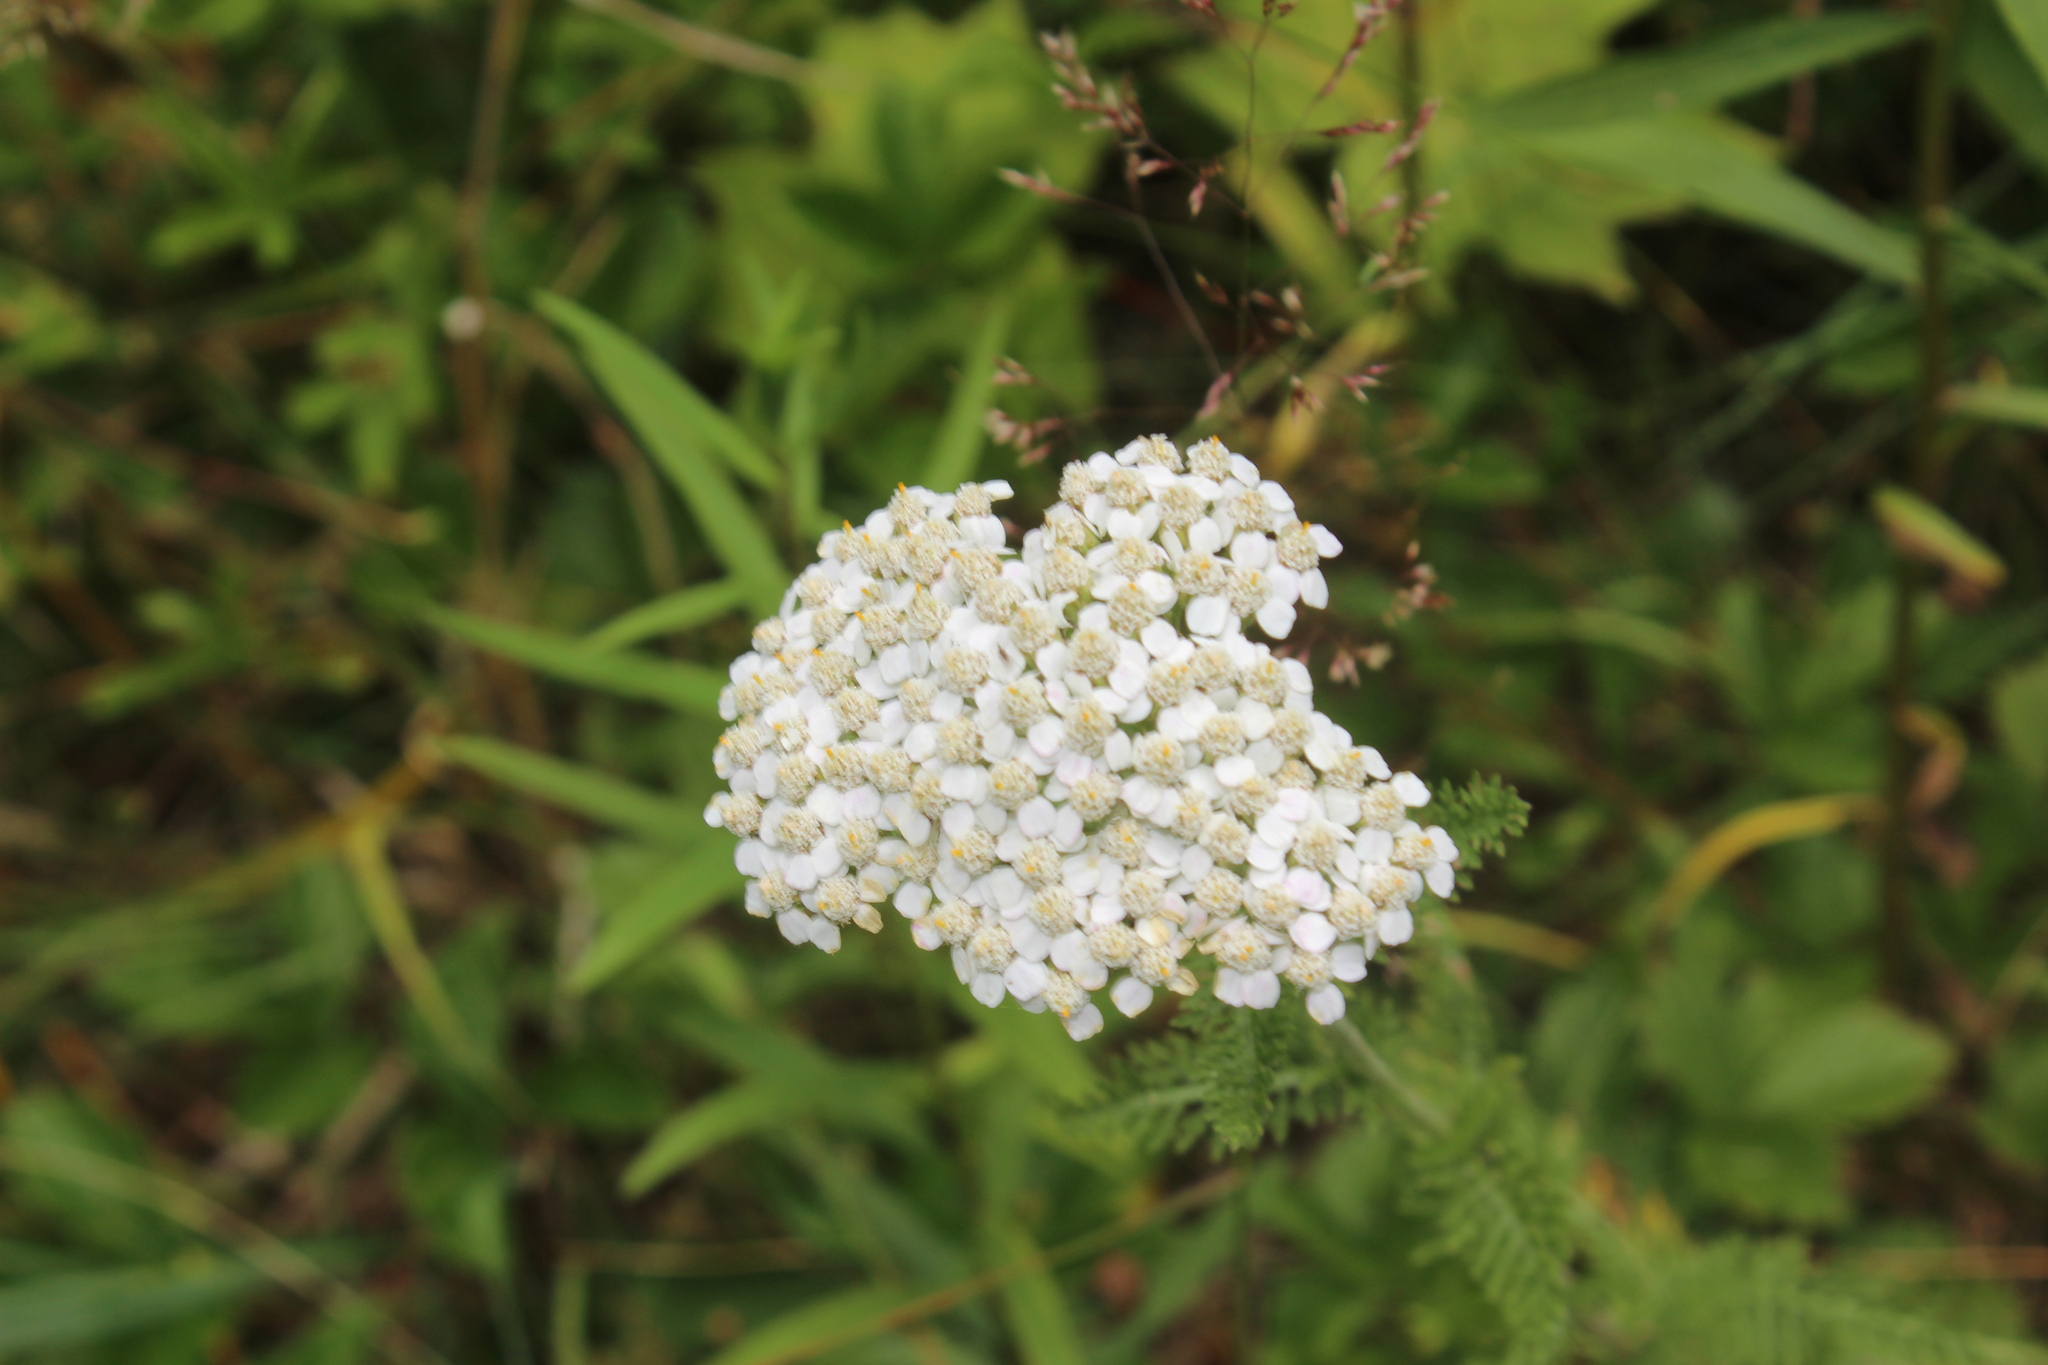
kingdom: Plantae
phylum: Tracheophyta
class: Magnoliopsida
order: Asterales
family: Asteraceae
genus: Achillea
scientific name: Achillea millefolium
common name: Yarrow
